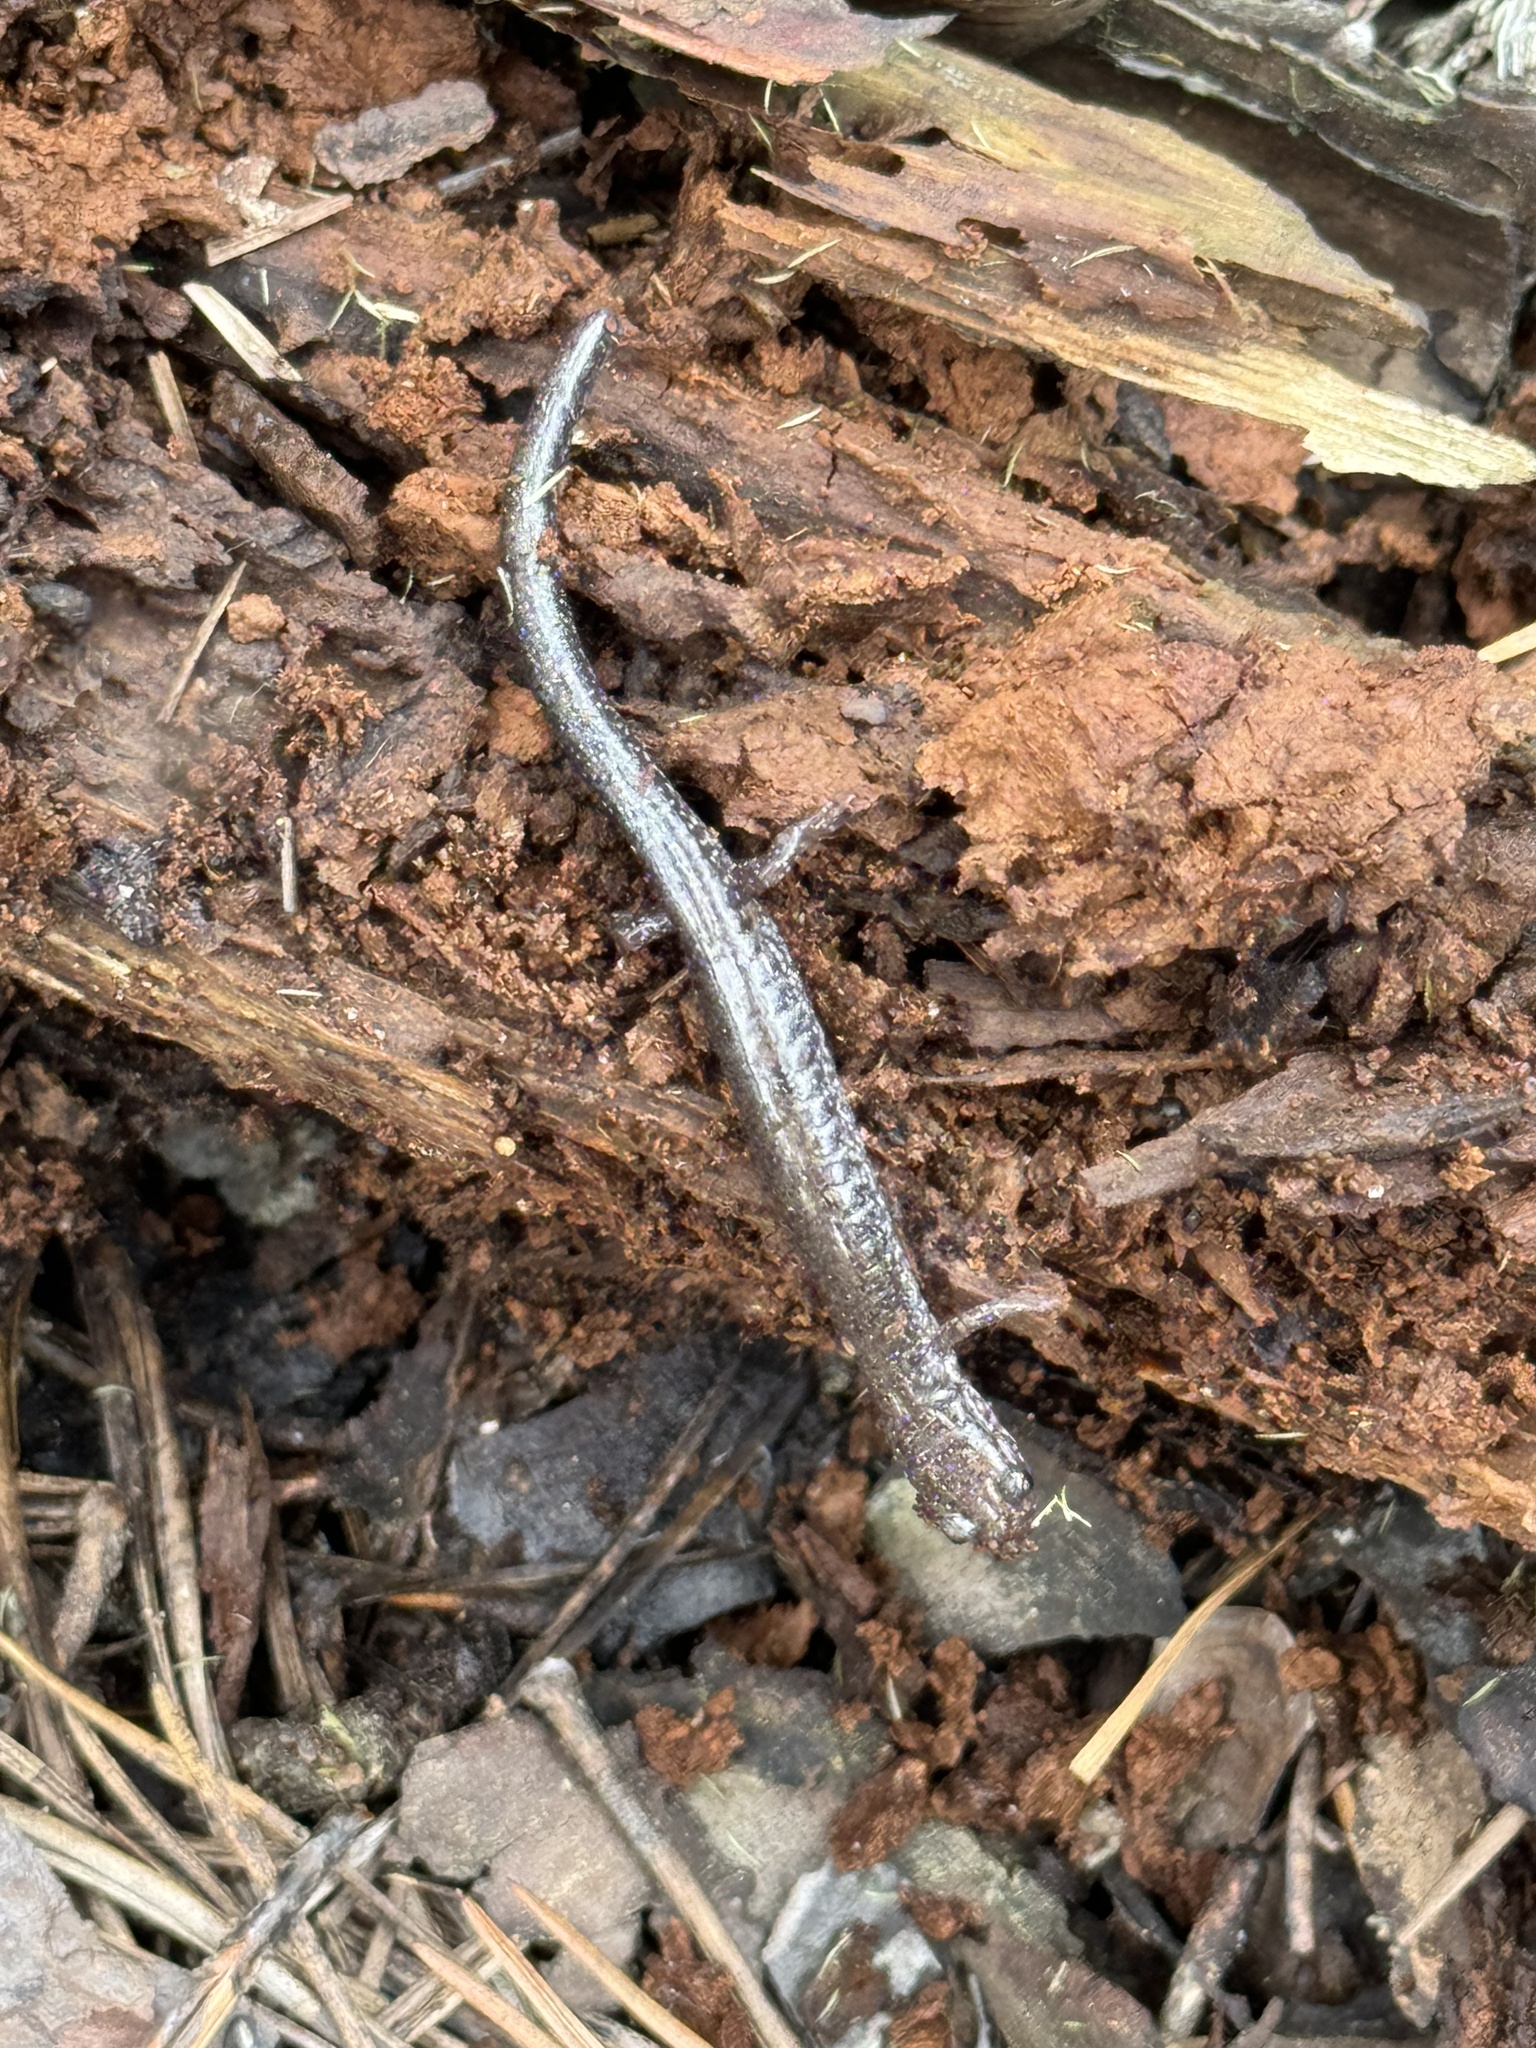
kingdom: Animalia
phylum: Chordata
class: Amphibia
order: Caudata
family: Plethodontidae
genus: Plethodon
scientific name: Plethodon cinereus
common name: Redback salamander
